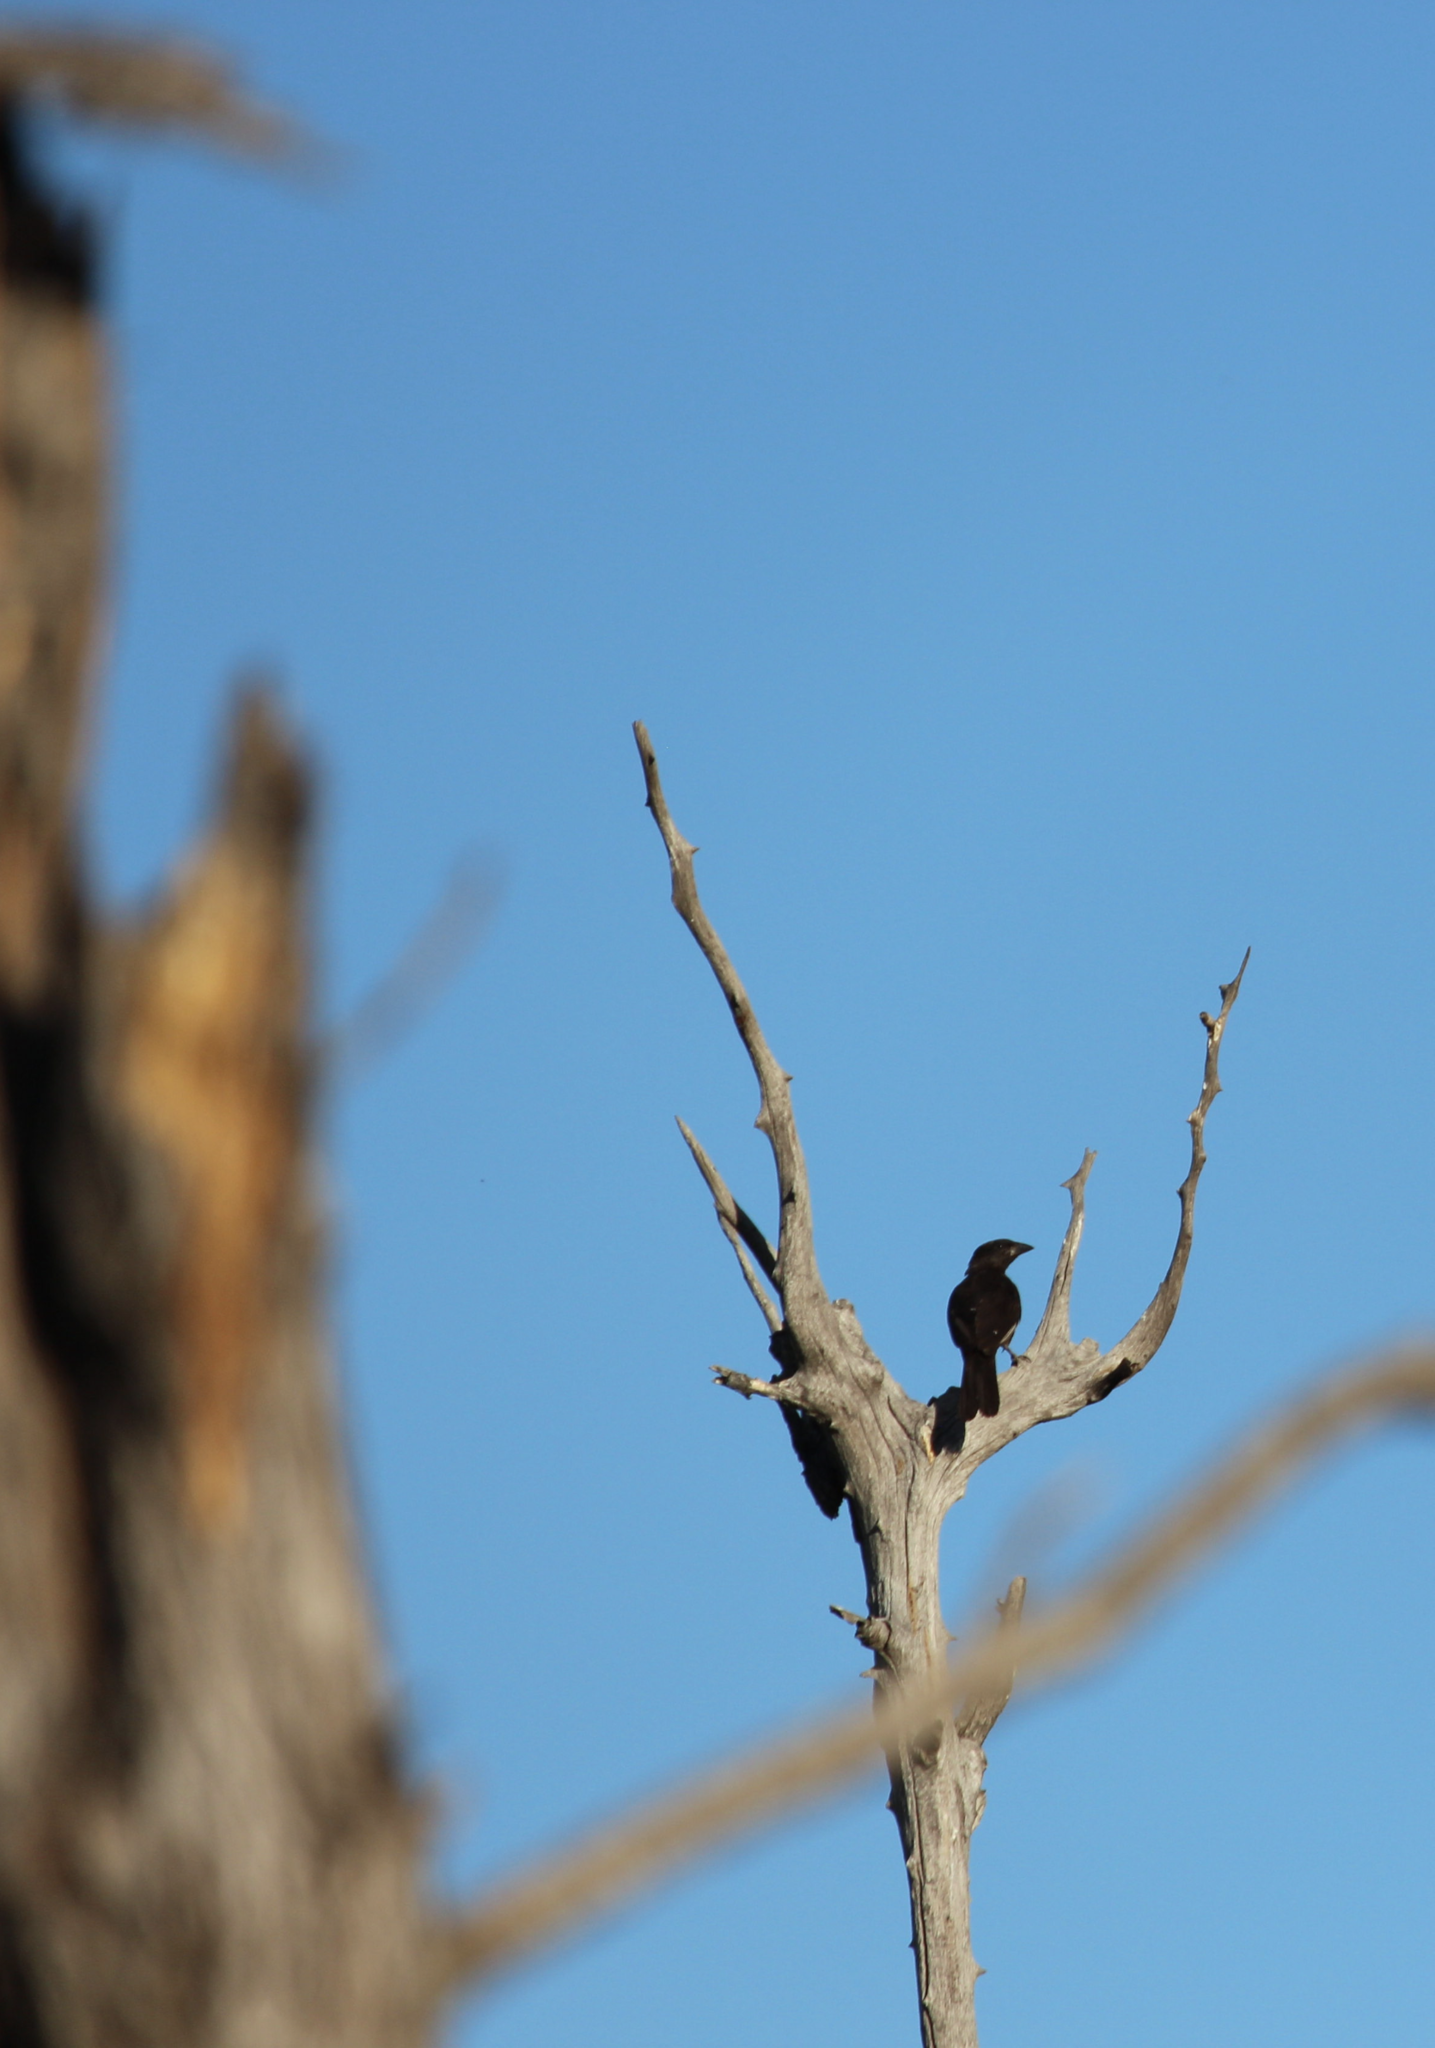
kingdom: Animalia
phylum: Chordata
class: Aves
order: Passeriformes
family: Ploceidae
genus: Bubalornis
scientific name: Bubalornis niger
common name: Red-billed buffalo weaver
